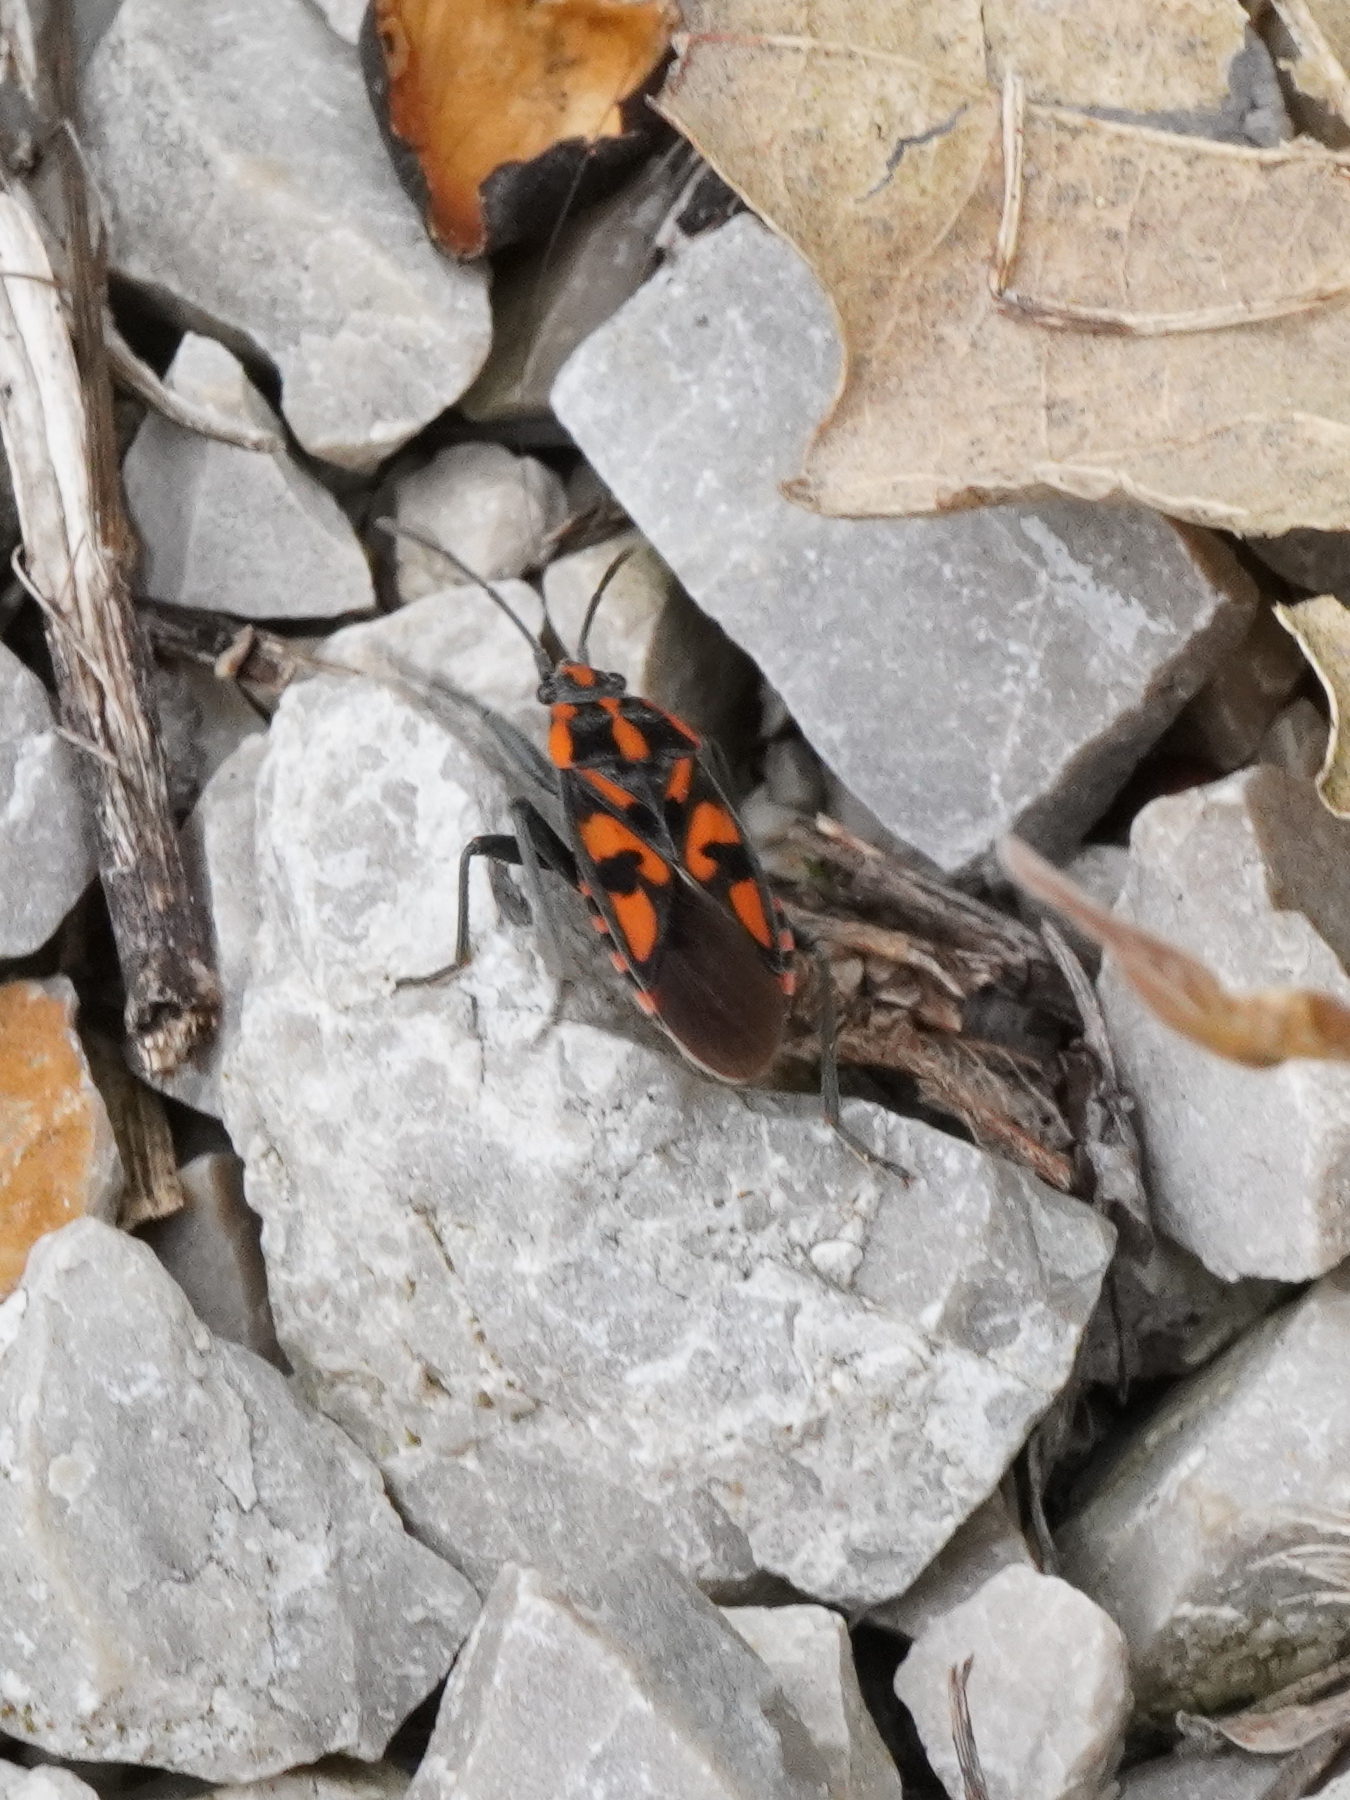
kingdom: Animalia
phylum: Arthropoda
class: Insecta
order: Hemiptera
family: Lygaeidae
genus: Spilostethus
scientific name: Spilostethus saxatilis
